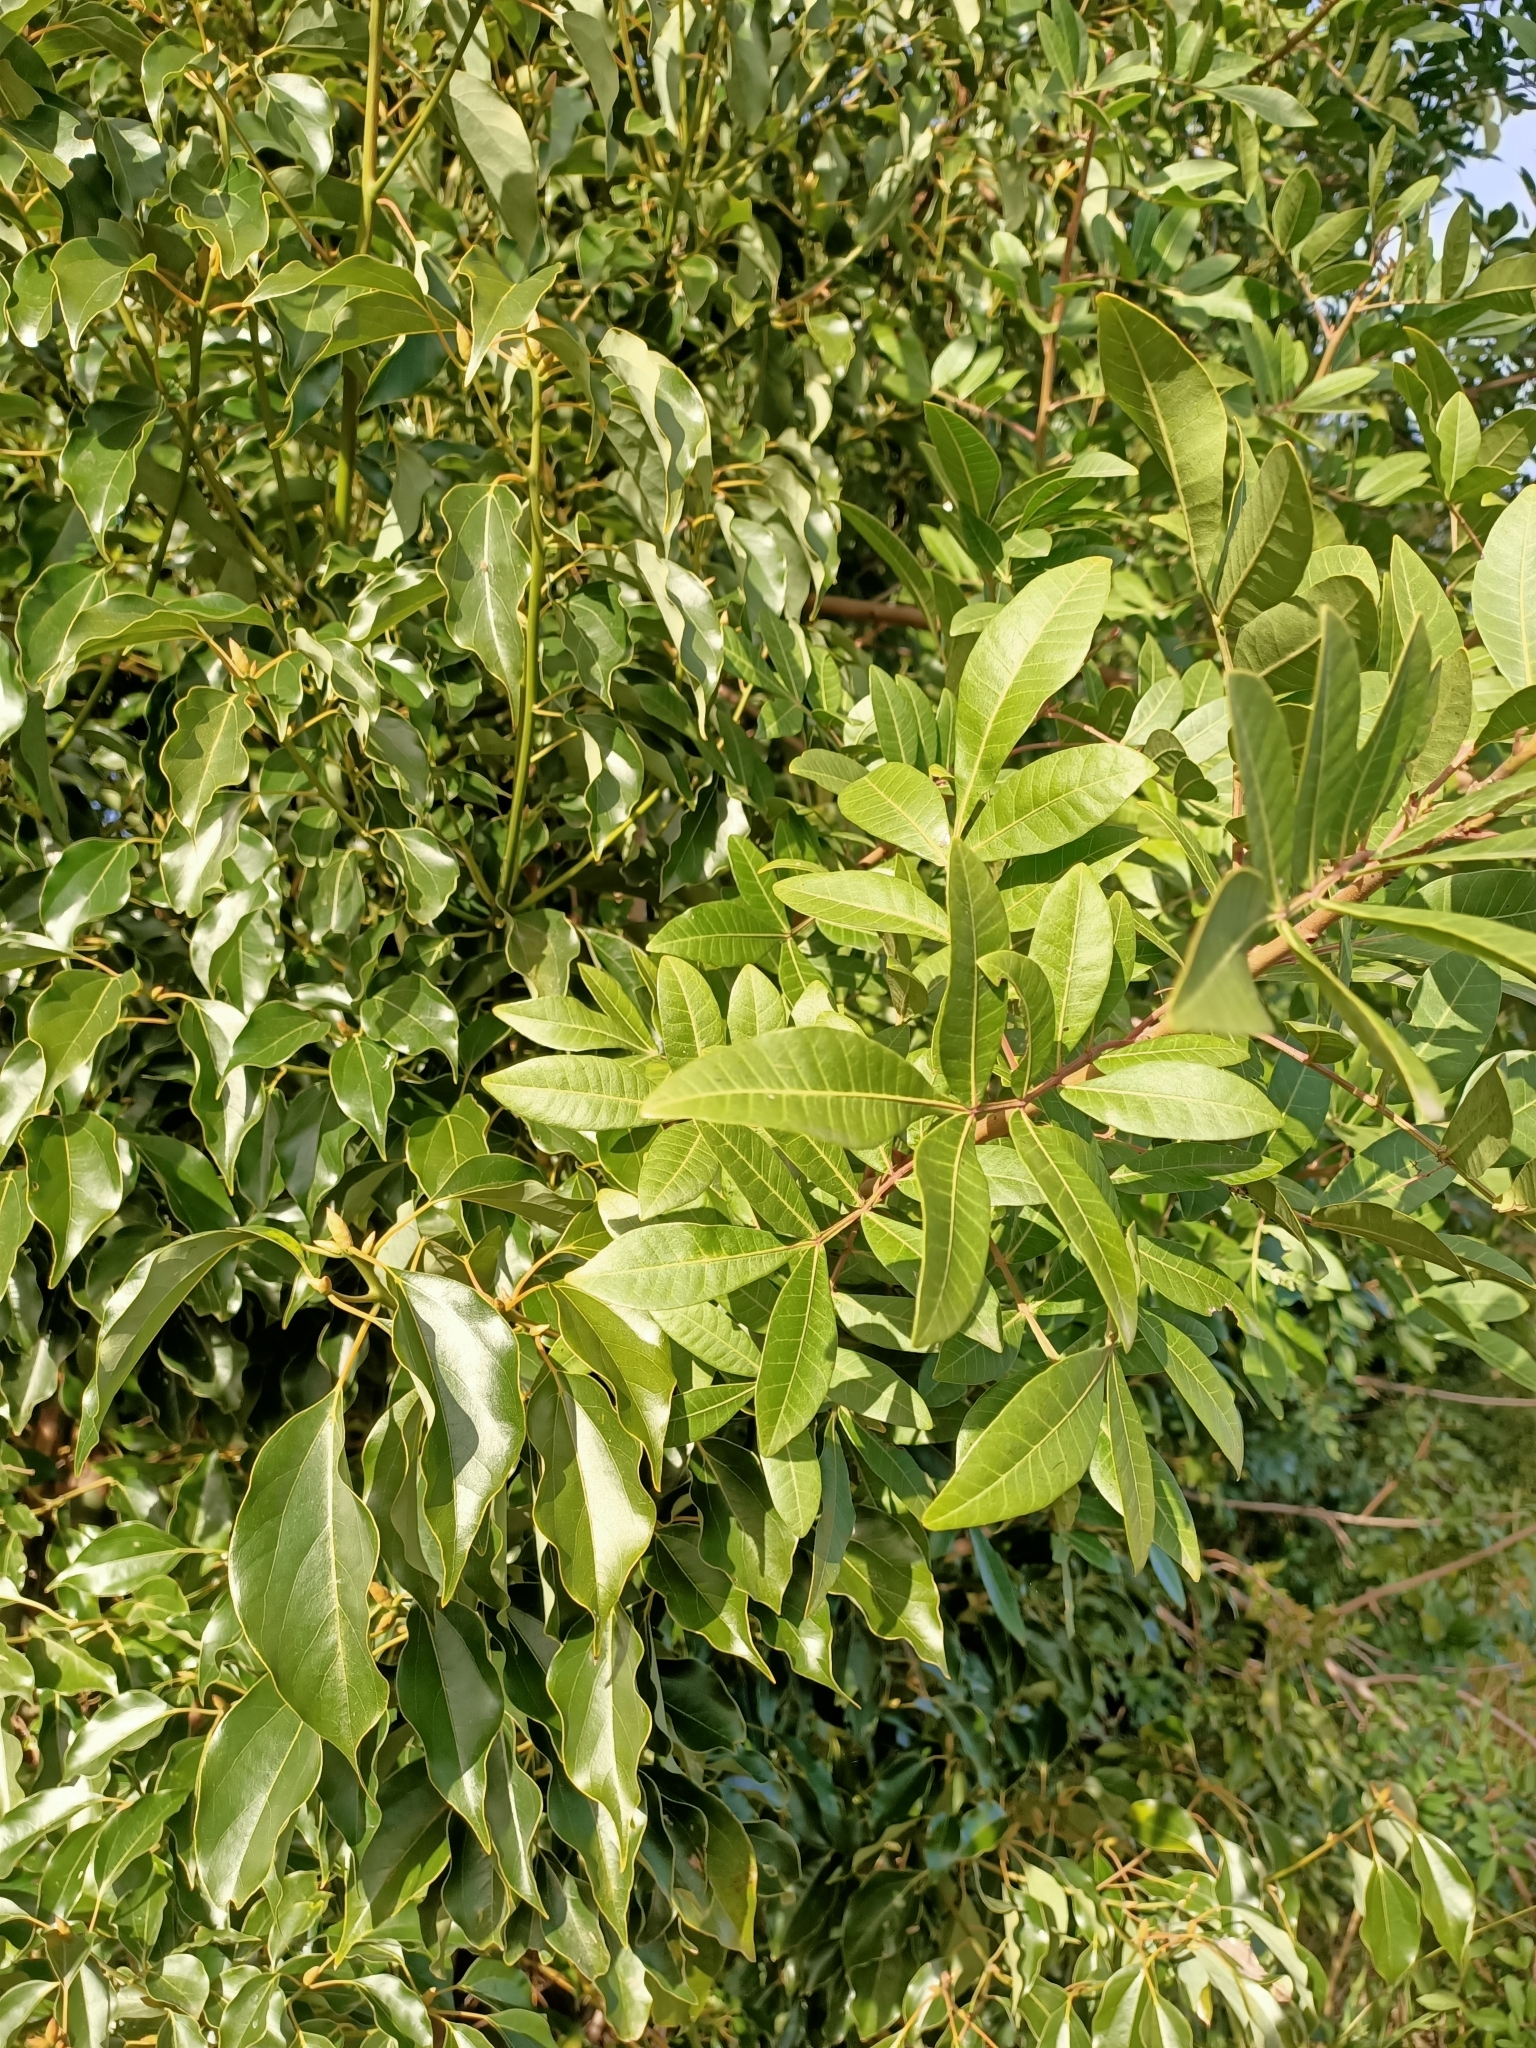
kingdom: Plantae
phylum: Tracheophyta
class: Magnoliopsida
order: Laurales
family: Lauraceae
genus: Cinnamomum
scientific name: Cinnamomum camphora
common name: Camphortree
